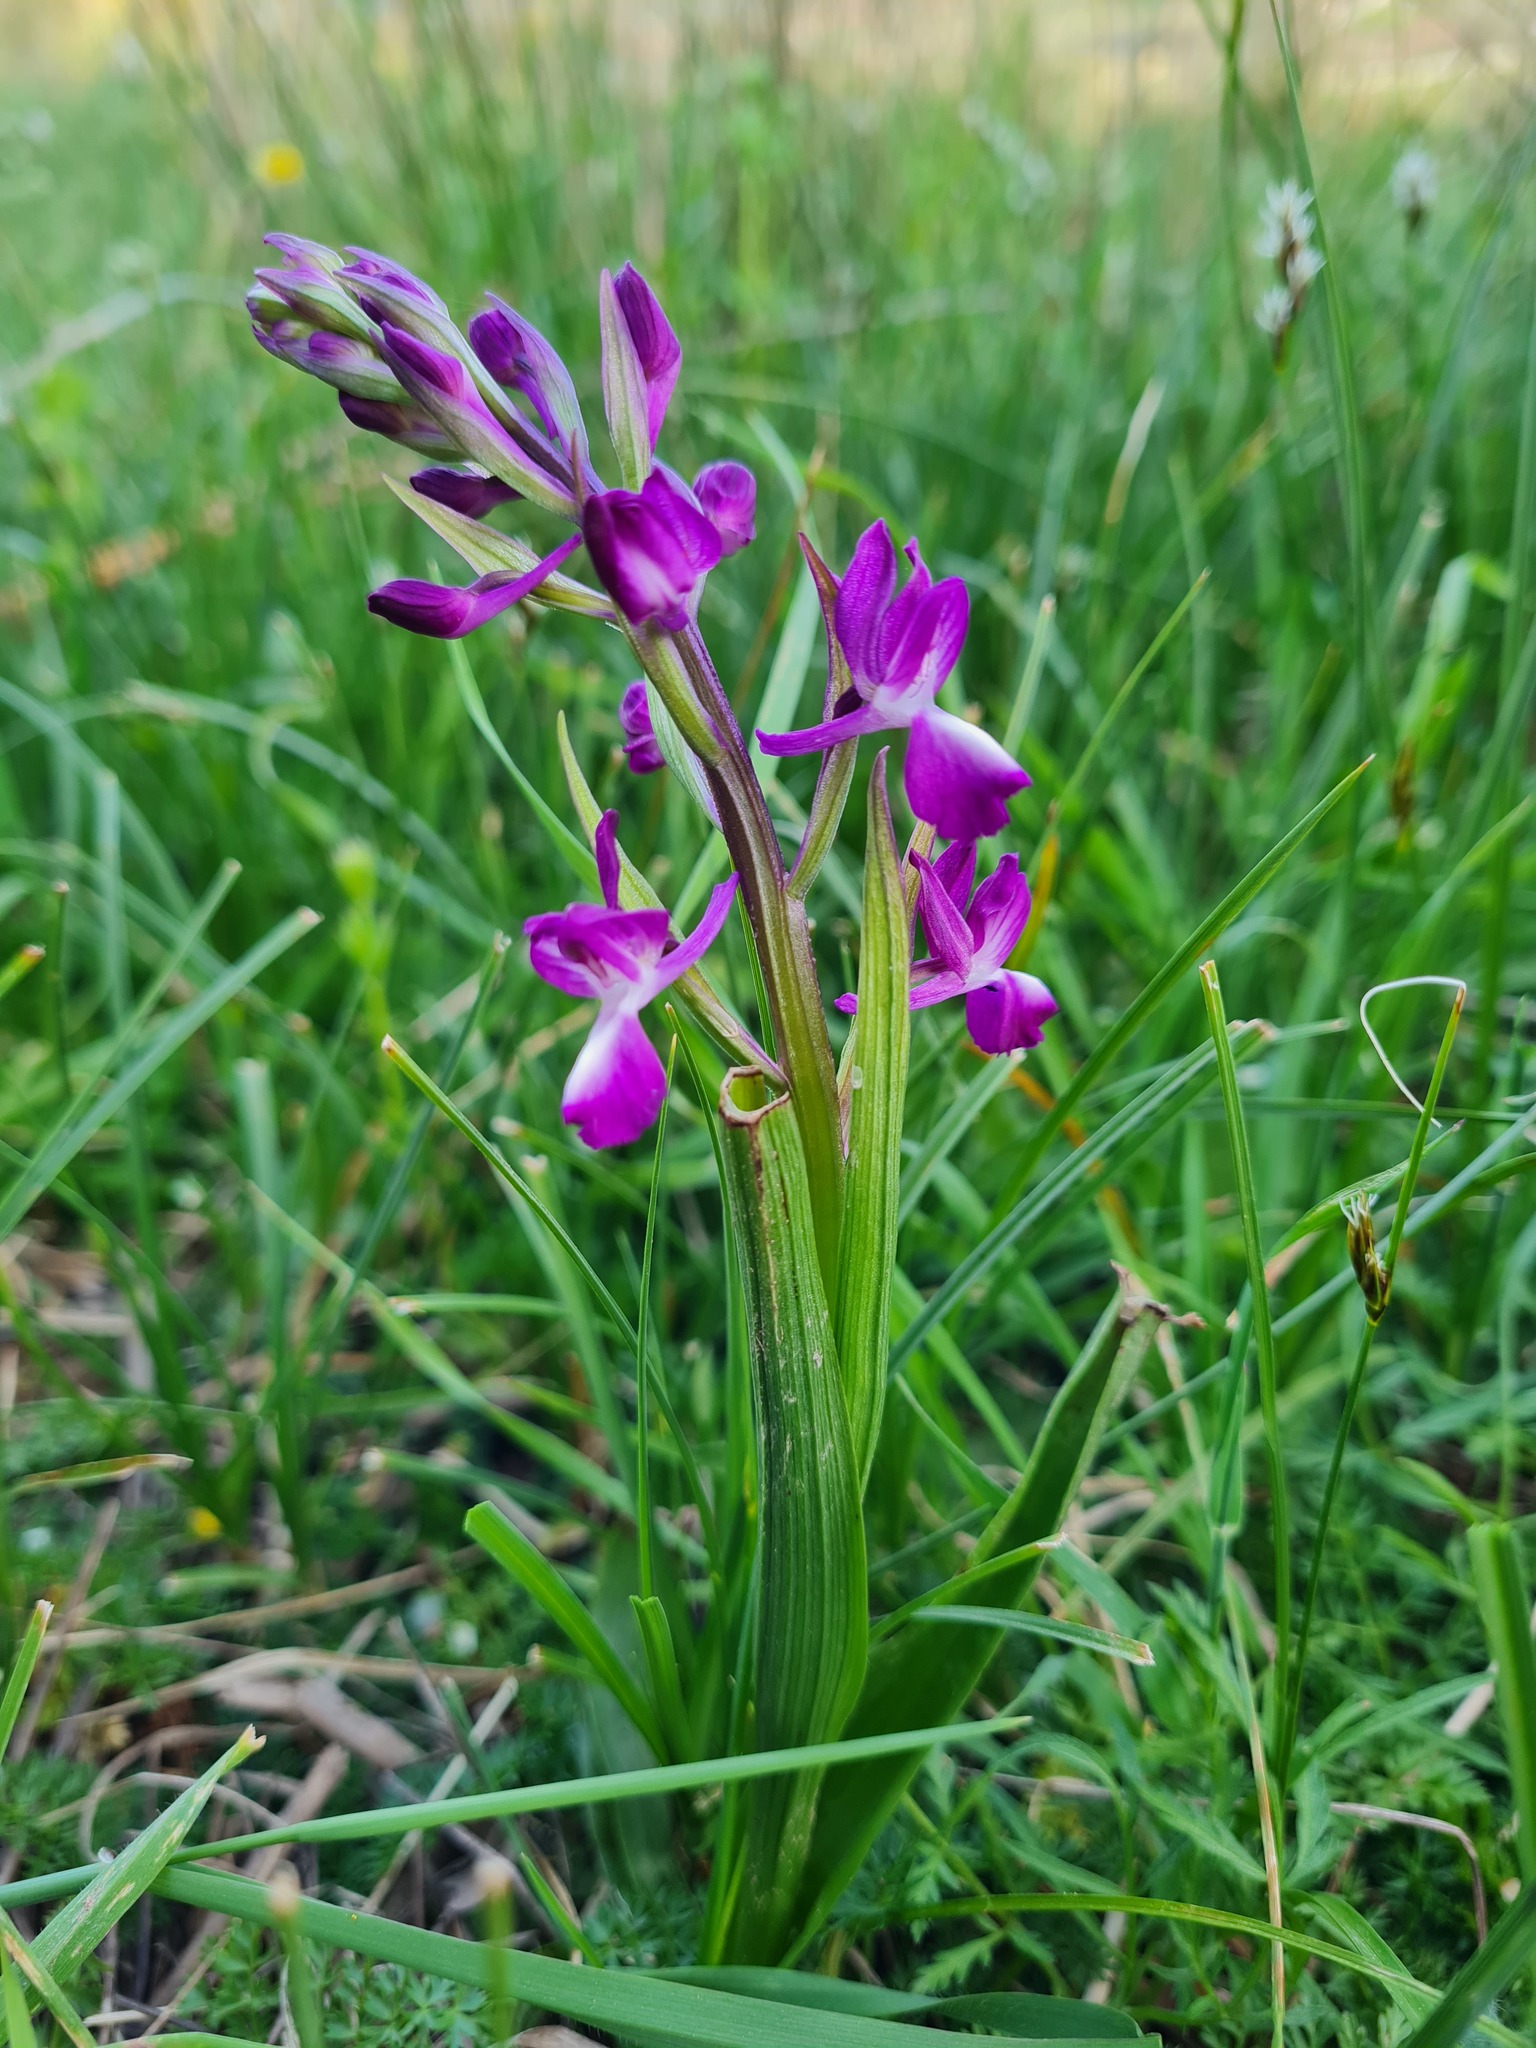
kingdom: Plantae
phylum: Tracheophyta
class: Liliopsida
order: Asparagales
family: Orchidaceae
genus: Anacamptis
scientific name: Anacamptis laxiflora
